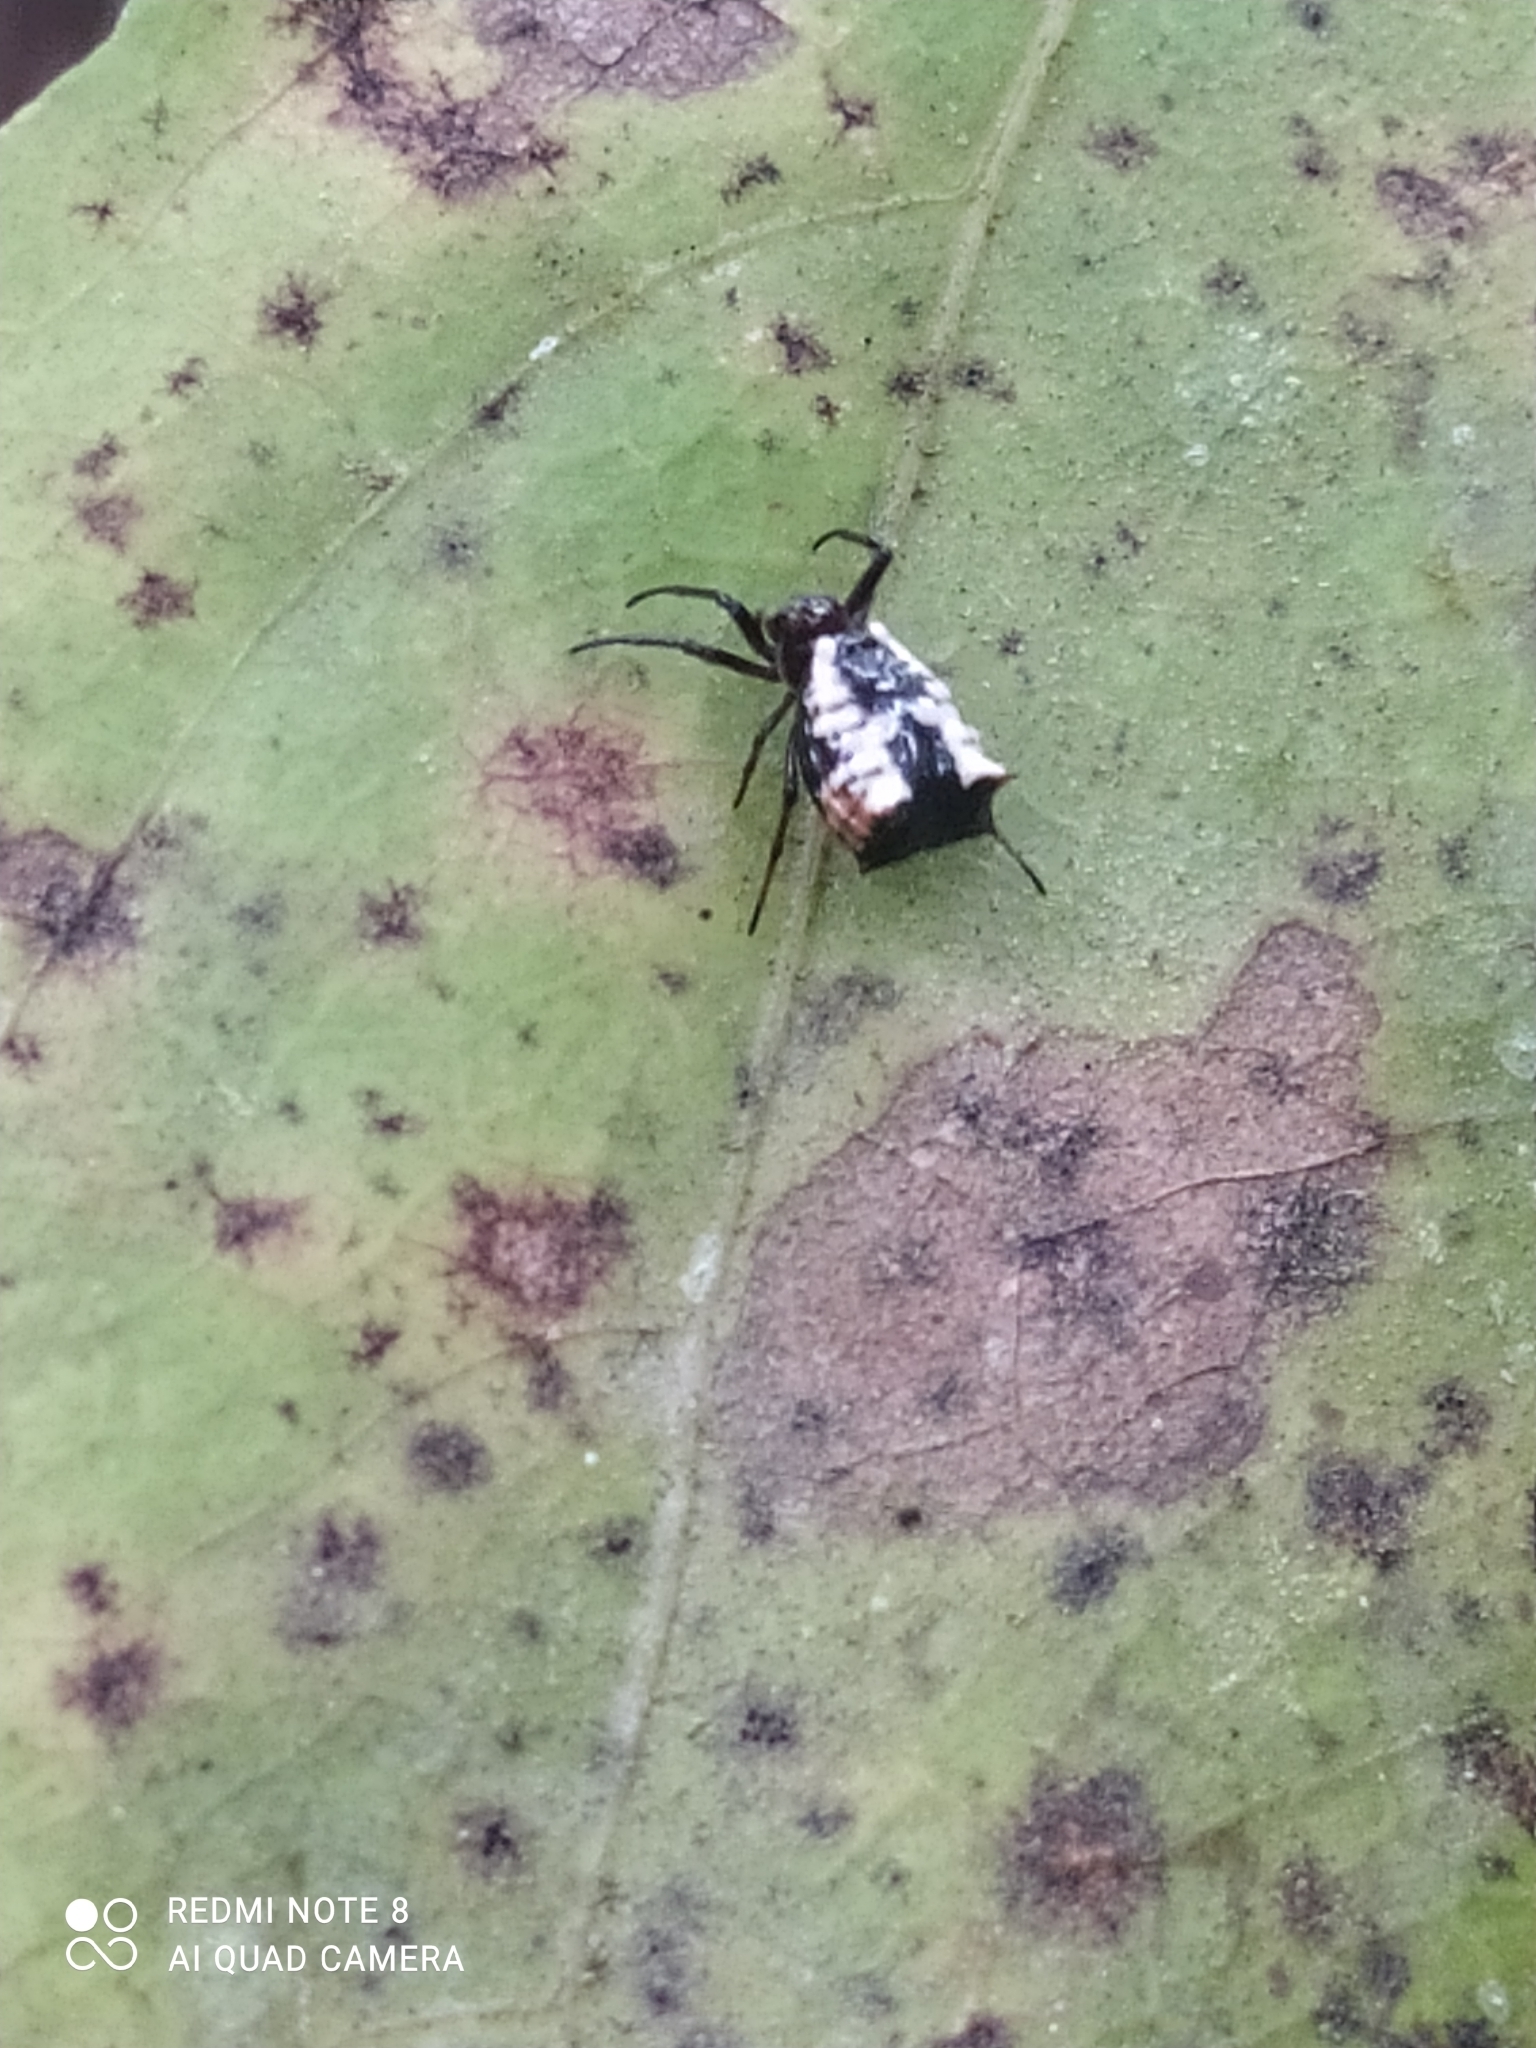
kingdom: Animalia
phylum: Arthropoda
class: Arachnida
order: Araneae
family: Araneidae
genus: Micrathena
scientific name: Micrathena saccata
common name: Orb weavers
